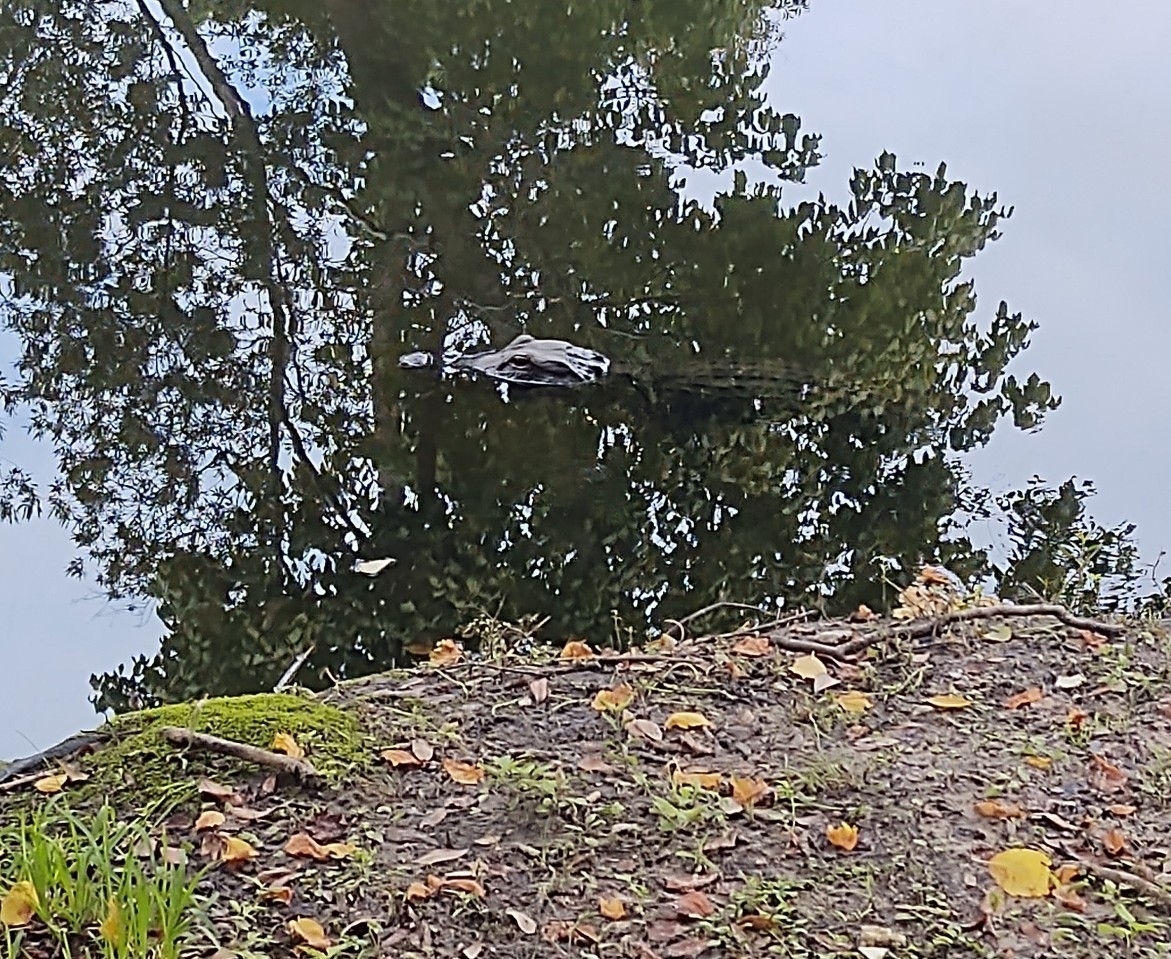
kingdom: Animalia
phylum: Chordata
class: Crocodylia
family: Alligatoridae
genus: Alligator
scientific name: Alligator mississippiensis
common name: American alligator
